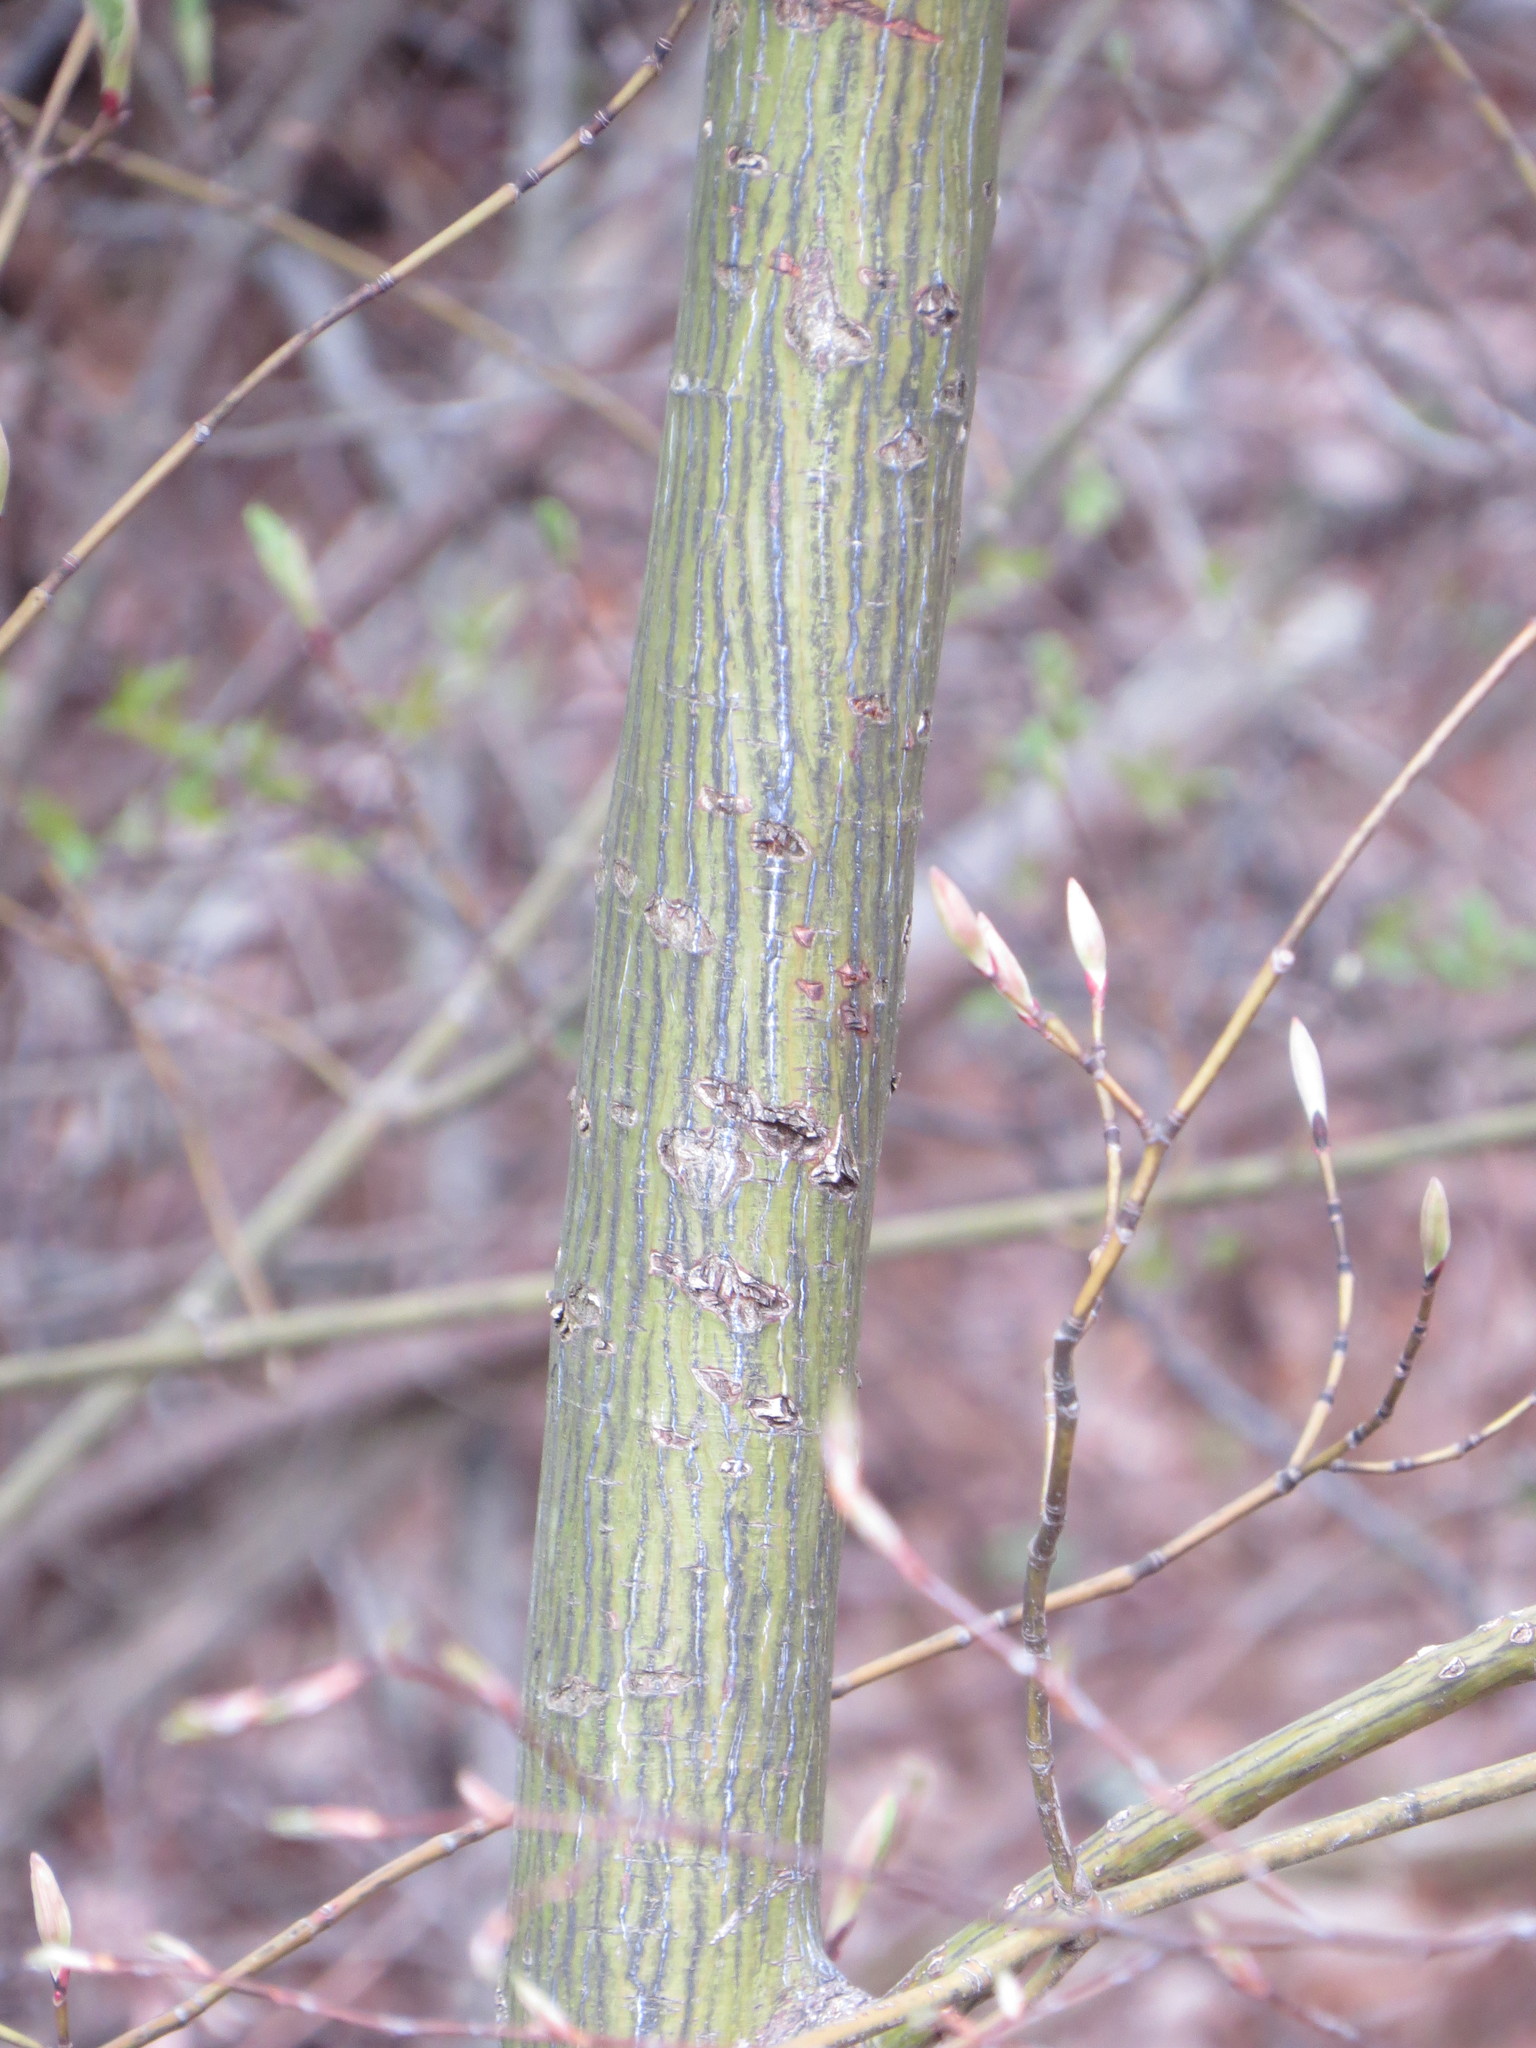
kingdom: Plantae
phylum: Tracheophyta
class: Magnoliopsida
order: Sapindales
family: Sapindaceae
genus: Acer
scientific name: Acer pensylvanicum
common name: Moosewood
